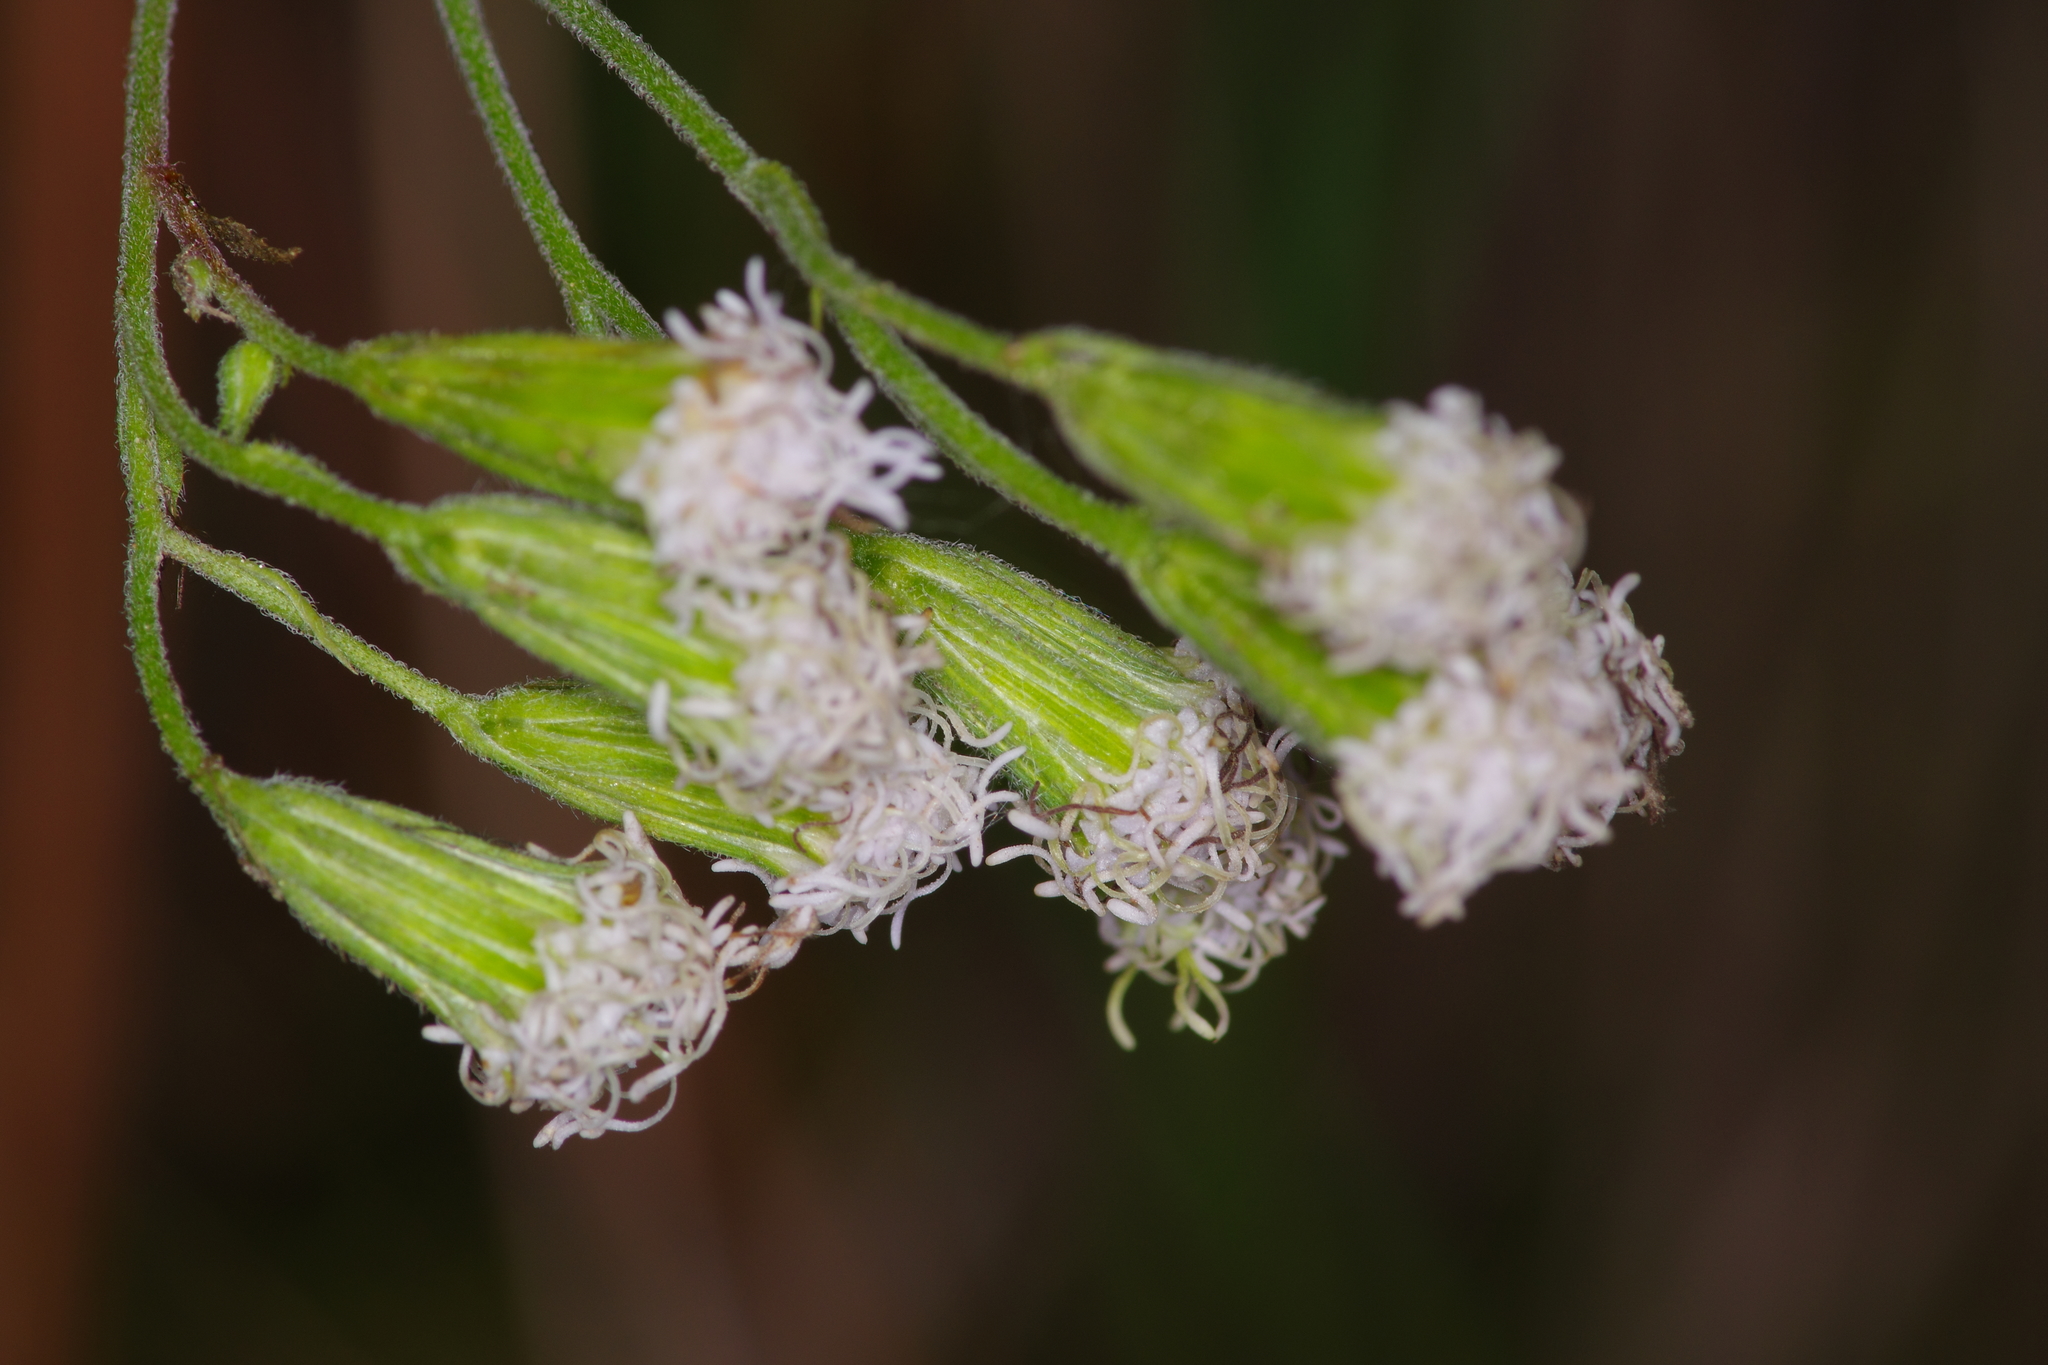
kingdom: Plantae
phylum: Tracheophyta
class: Magnoliopsida
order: Asterales
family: Asteraceae
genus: Ageratina
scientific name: Ageratina havanensis
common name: Havana snakeroot
